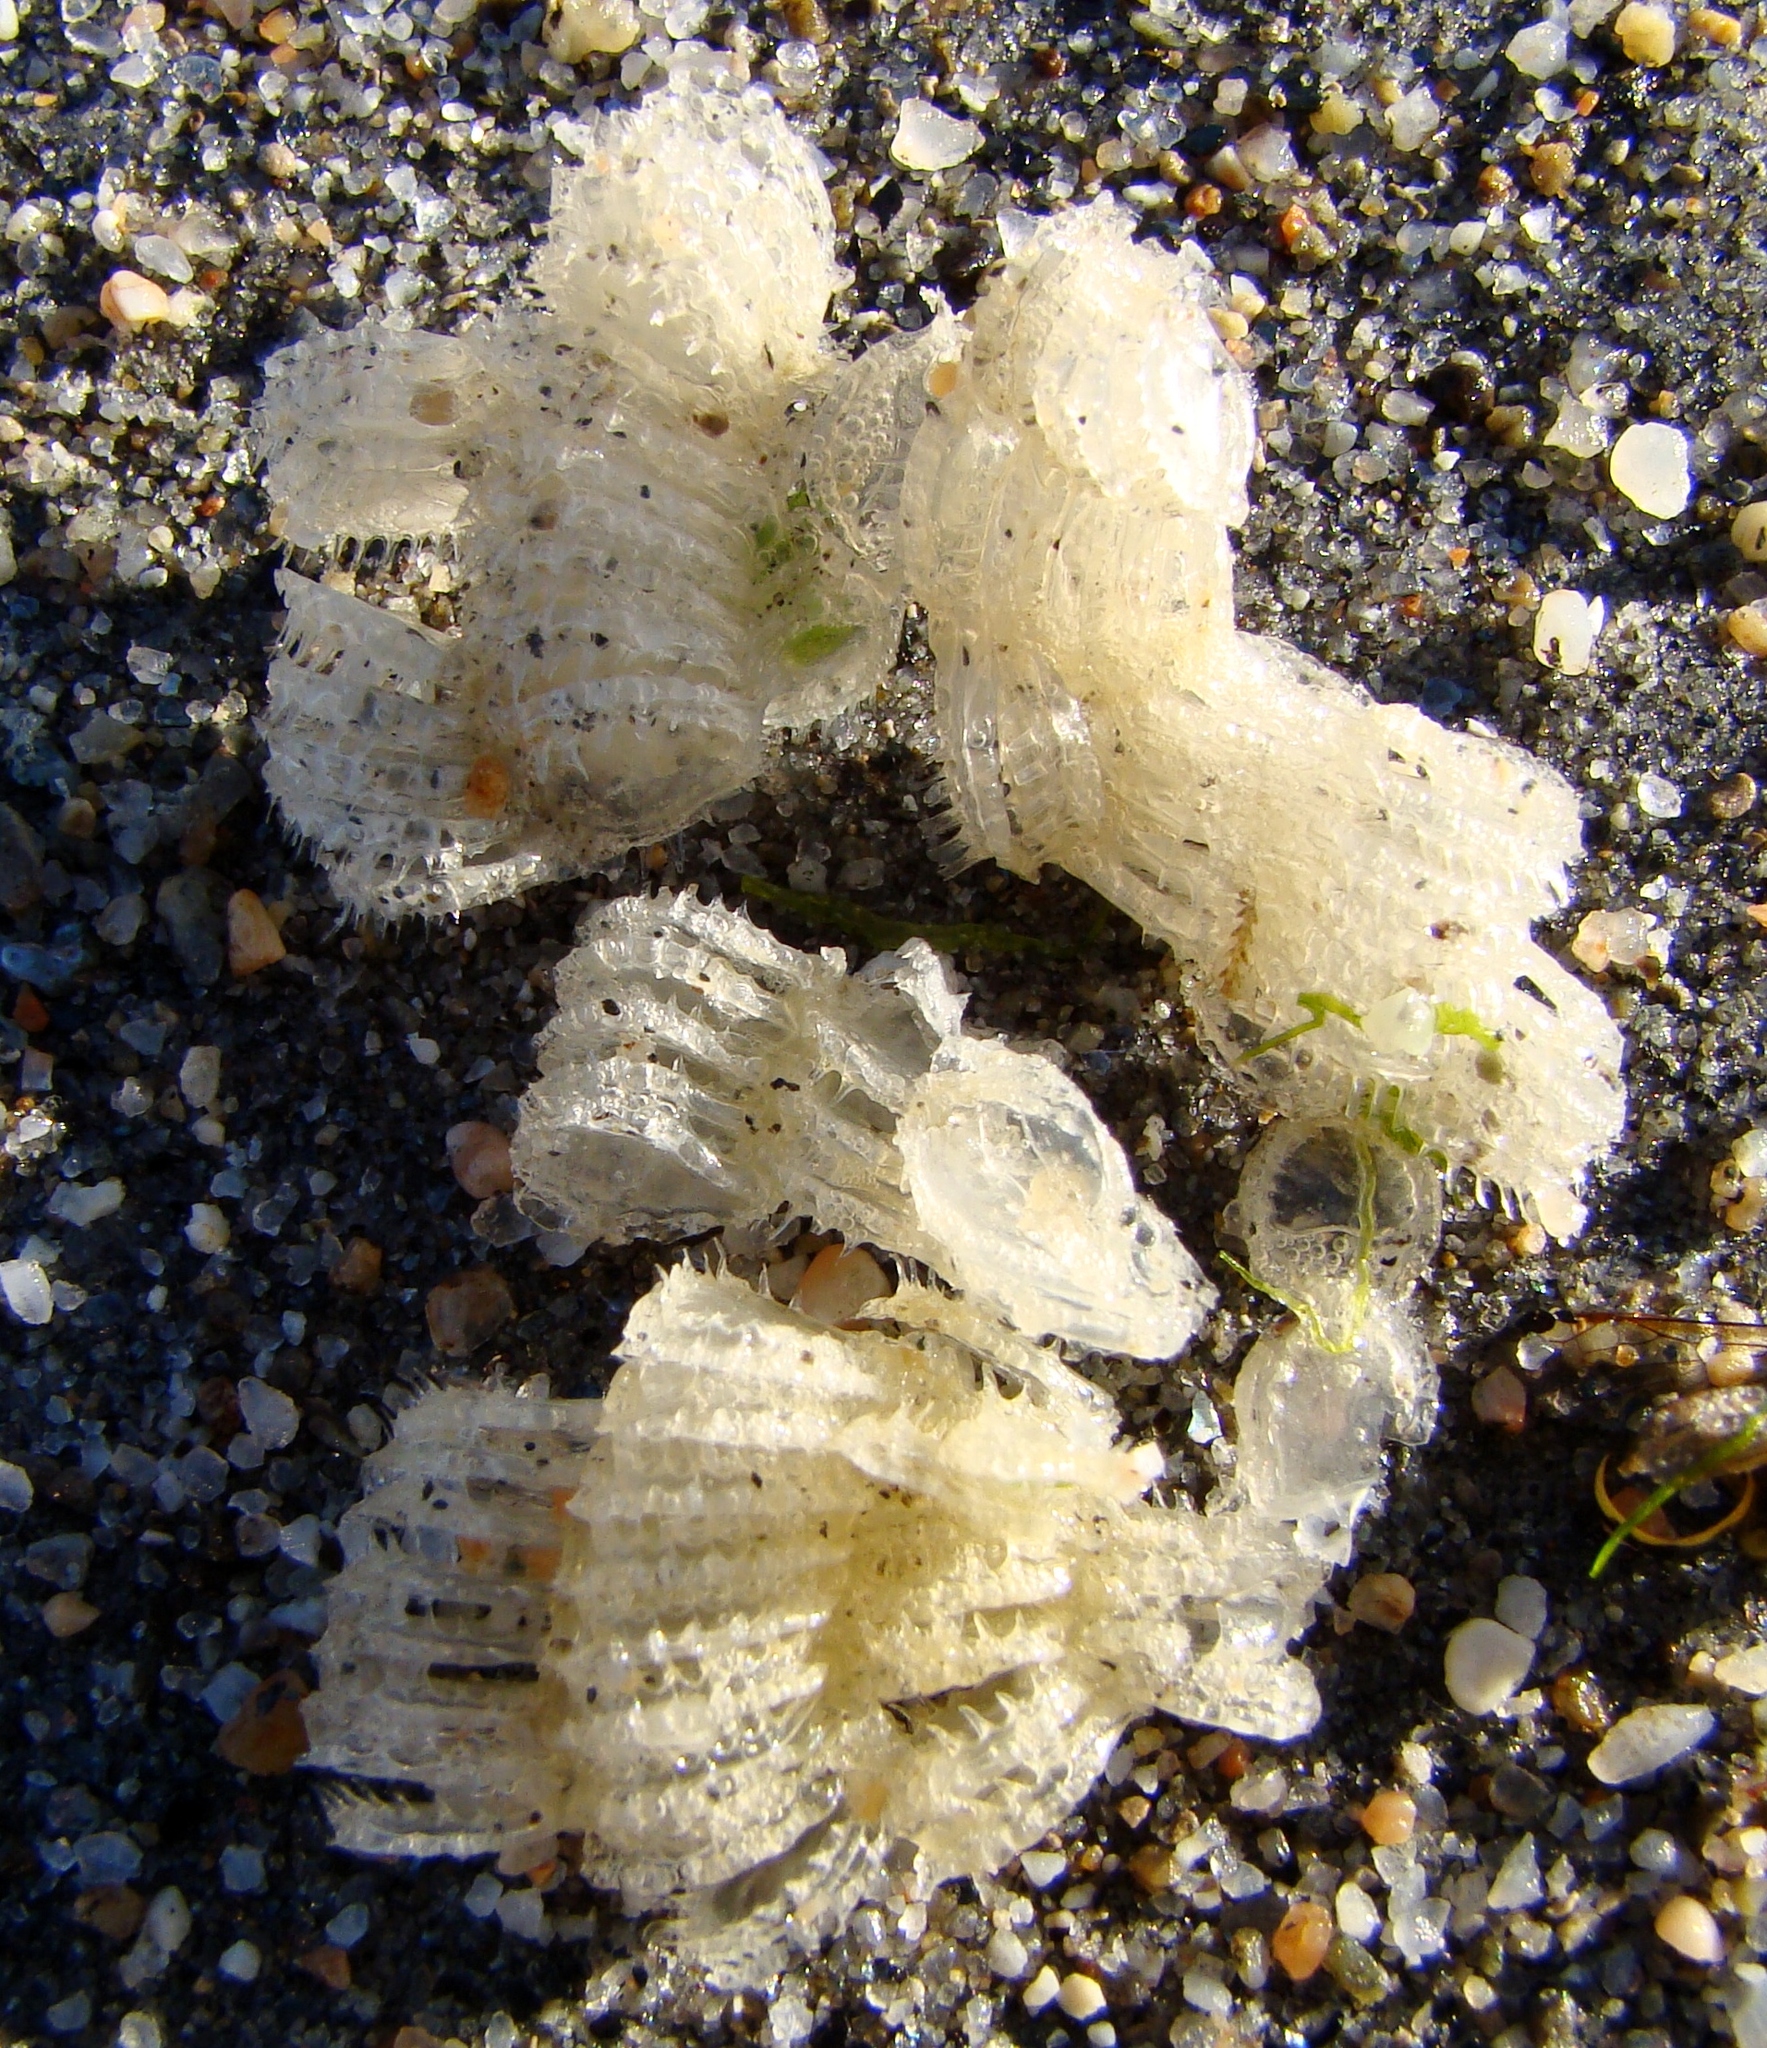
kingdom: Animalia
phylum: Mollusca
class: Gastropoda
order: Neogastropoda
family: Muricidae
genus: Poirieria
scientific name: Poirieria zelandica
